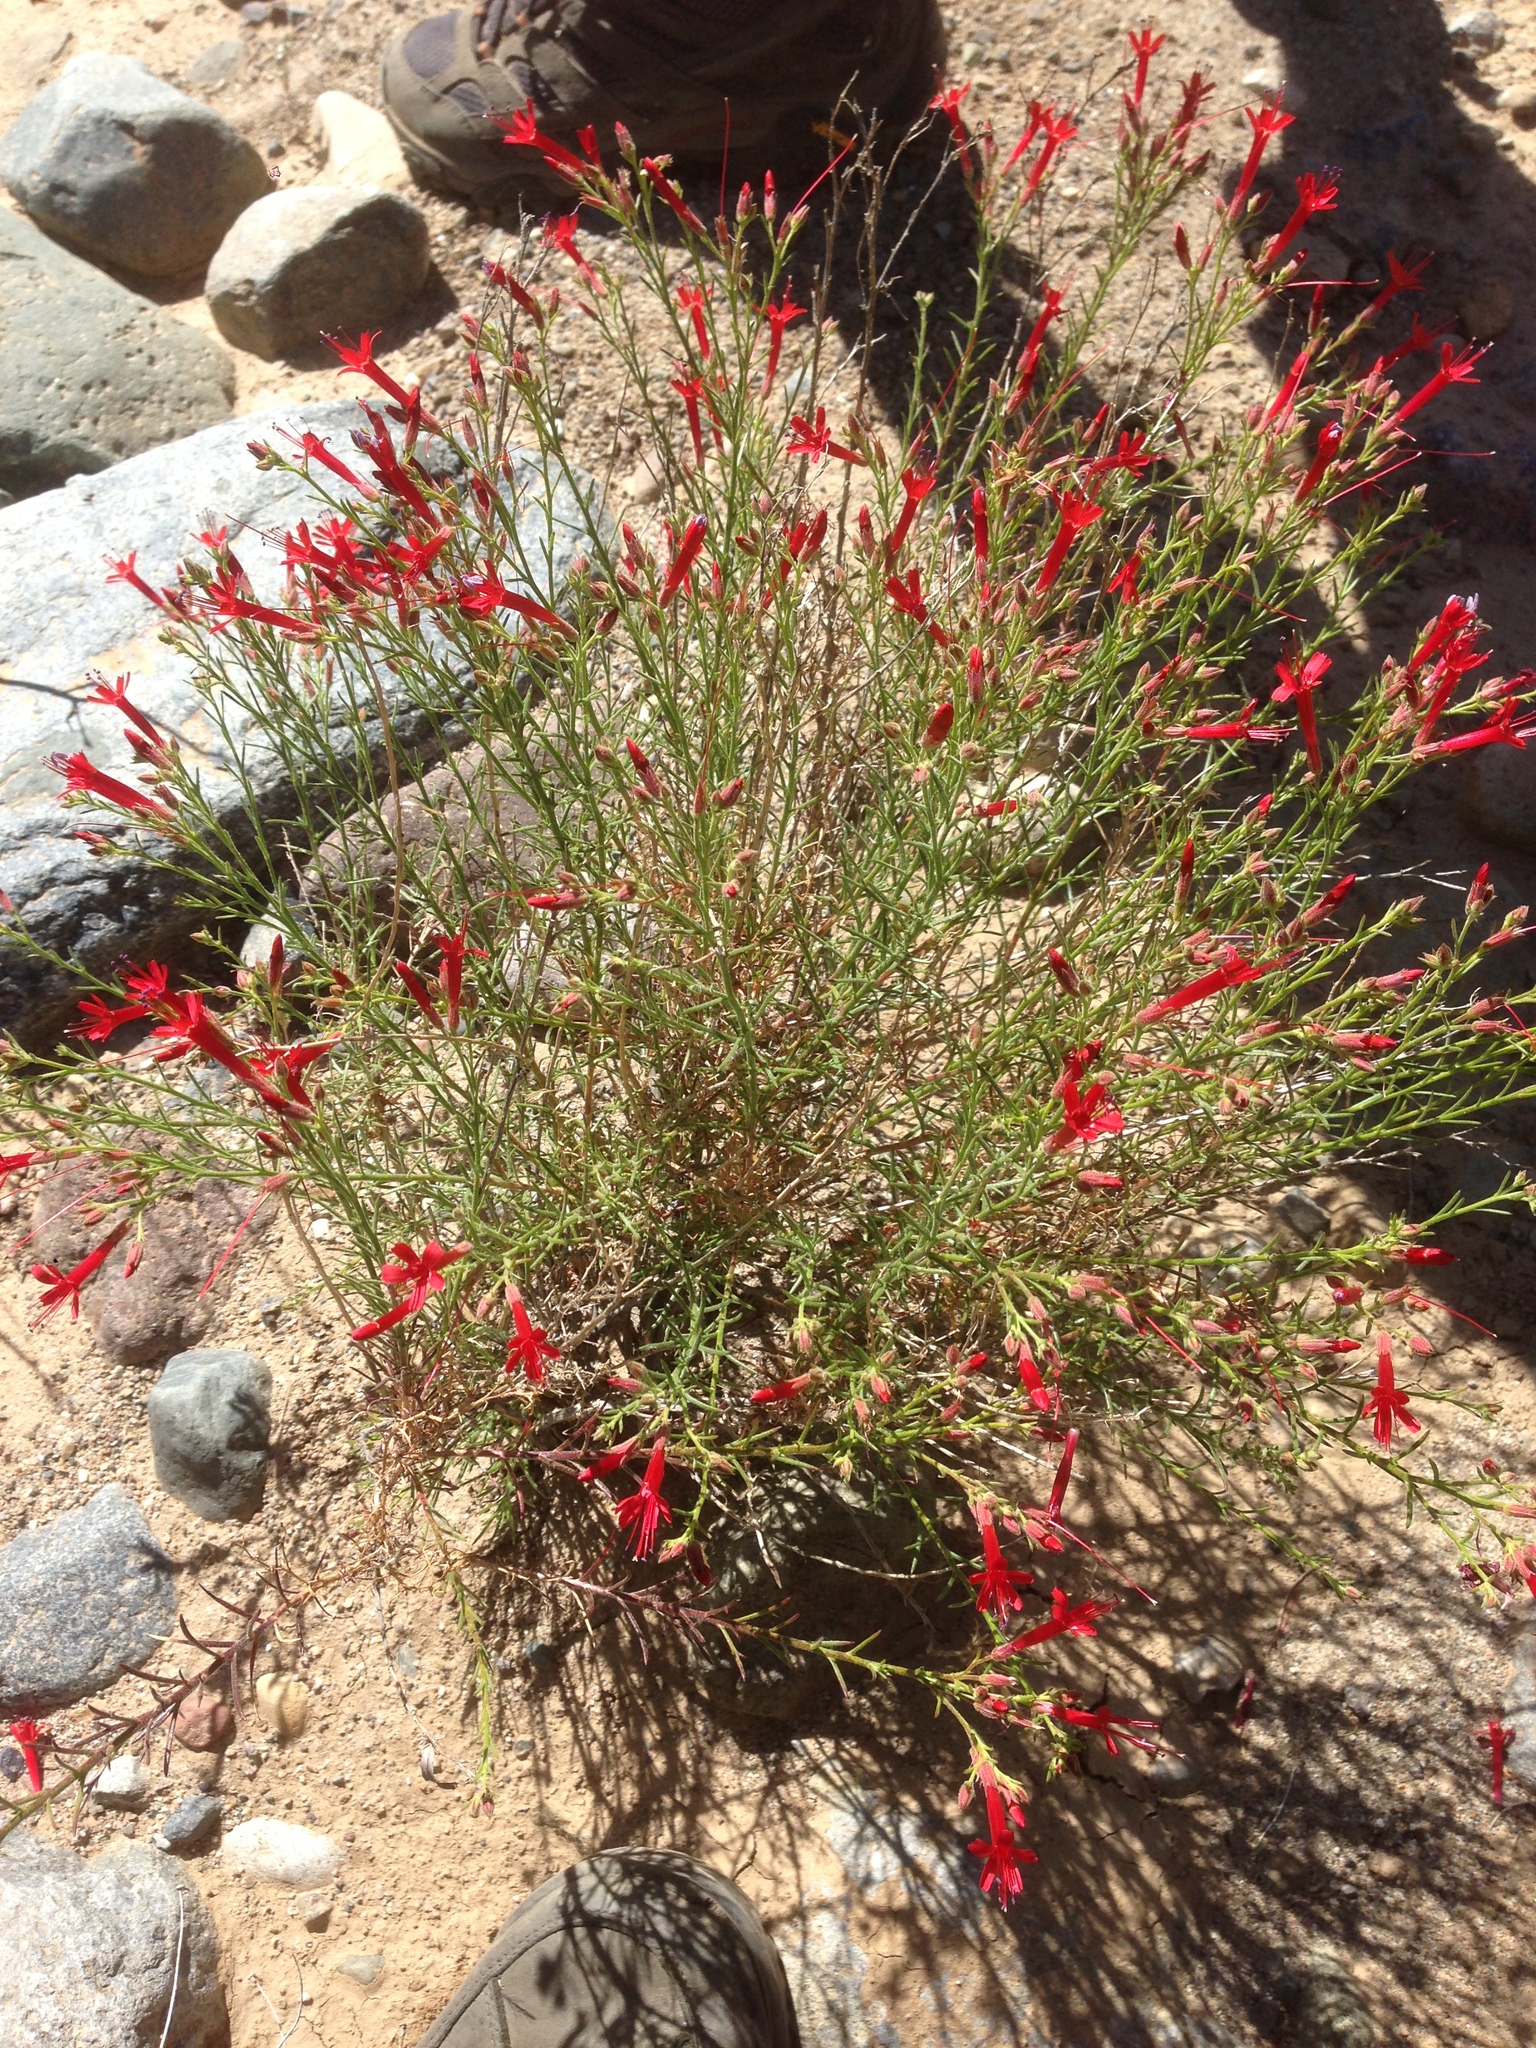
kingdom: Plantae
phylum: Tracheophyta
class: Magnoliopsida
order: Ericales
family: Polemoniaceae
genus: Ipomopsis
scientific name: Ipomopsis tenuifolia
